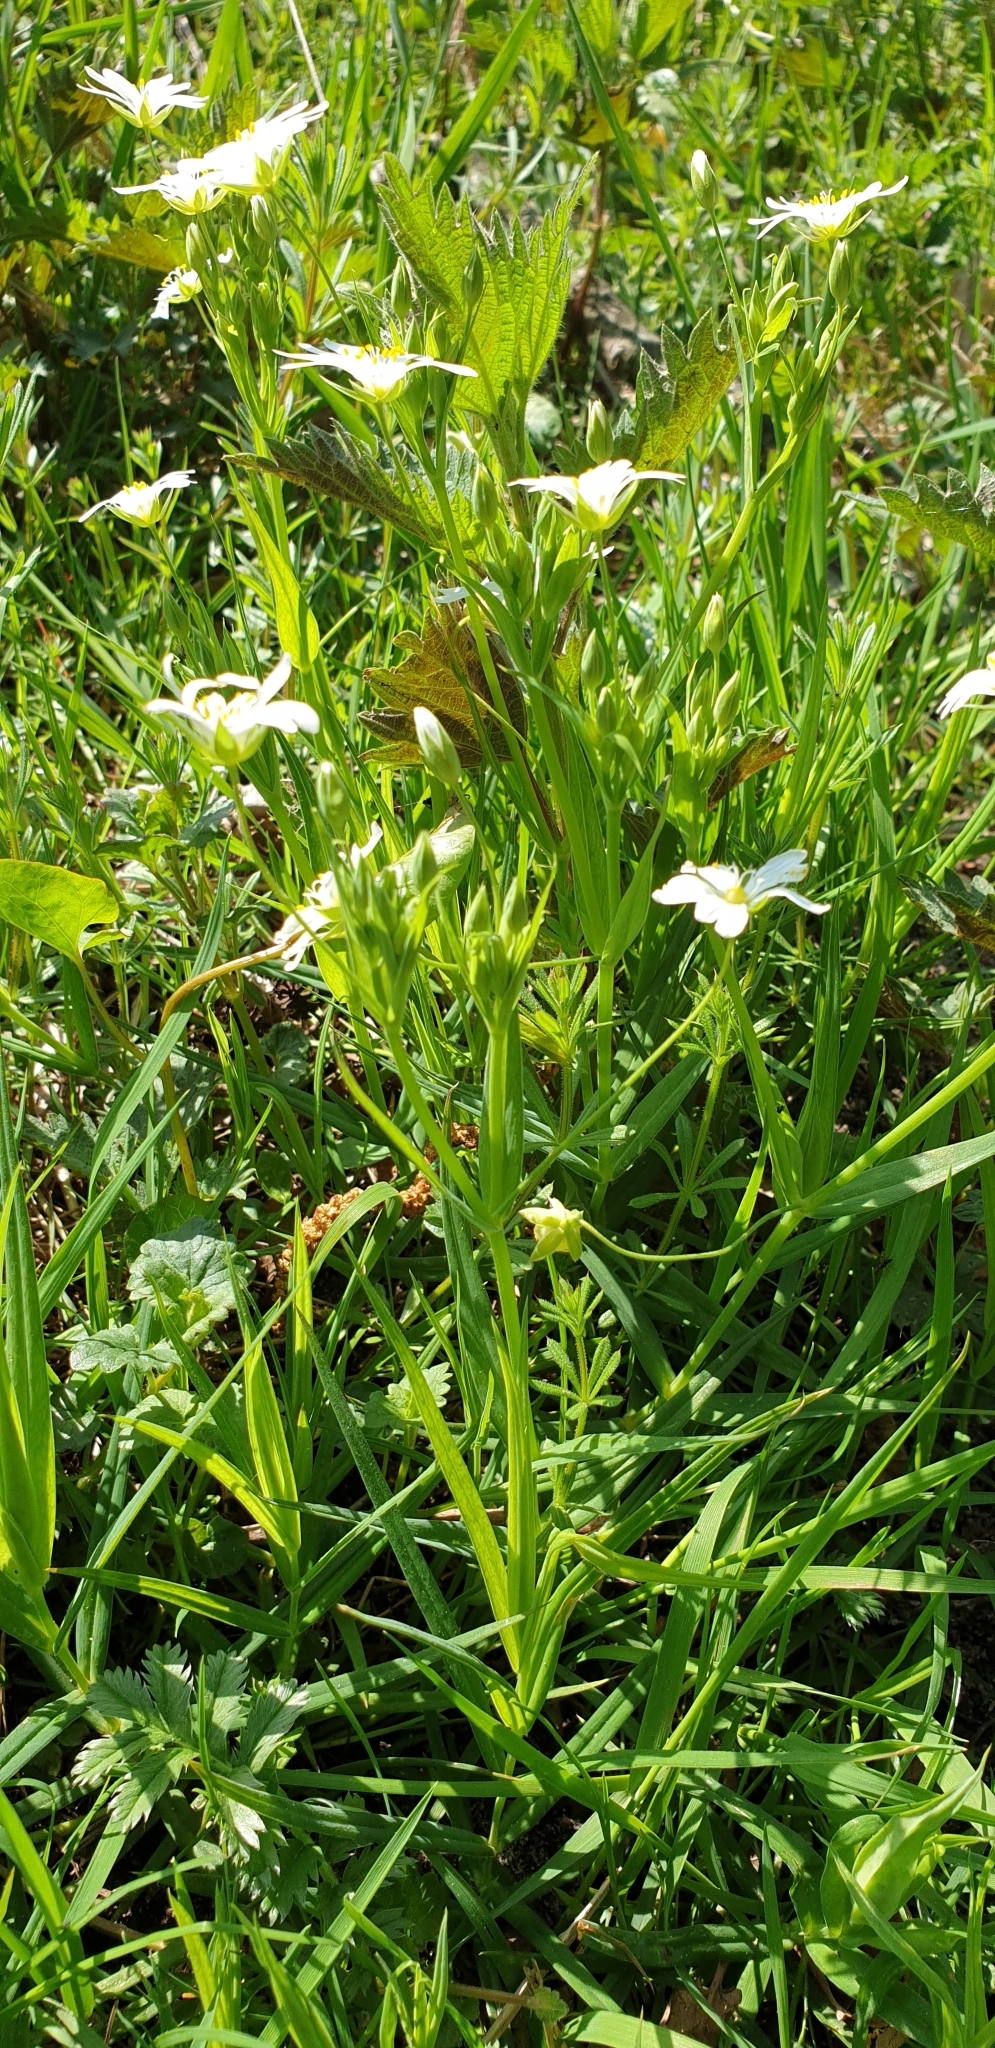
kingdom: Plantae
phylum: Tracheophyta
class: Magnoliopsida
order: Caryophyllales
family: Caryophyllaceae
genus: Rabelera
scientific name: Rabelera holostea
